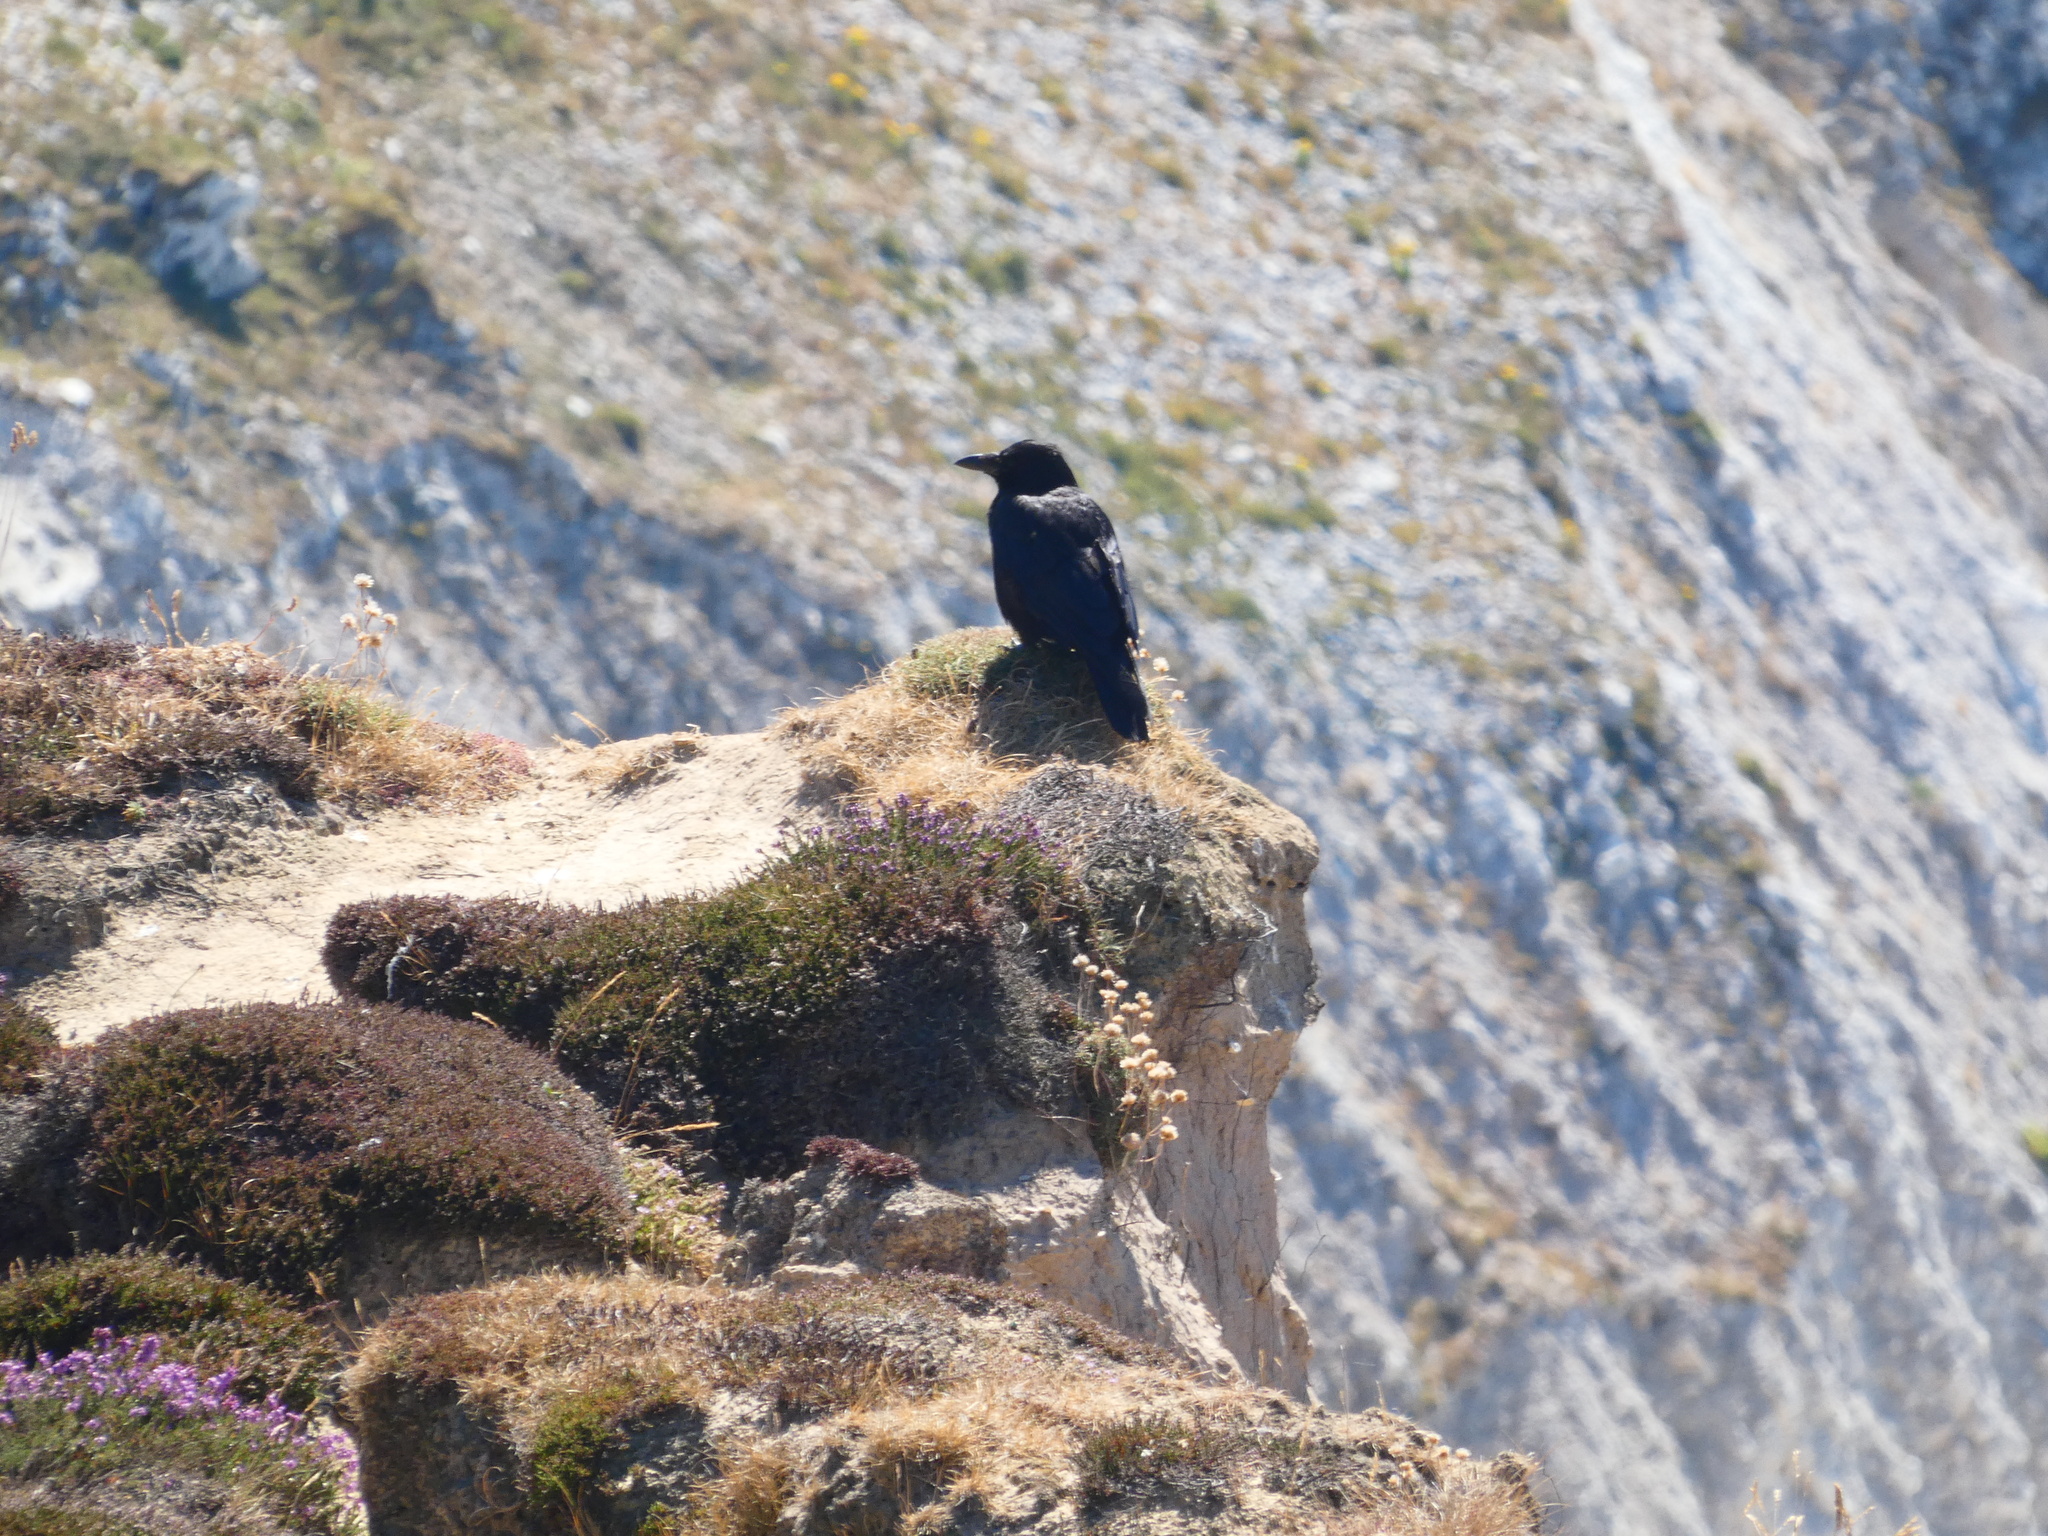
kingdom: Animalia
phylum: Chordata
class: Aves
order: Passeriformes
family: Corvidae
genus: Corvus
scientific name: Corvus corax
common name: Common raven
